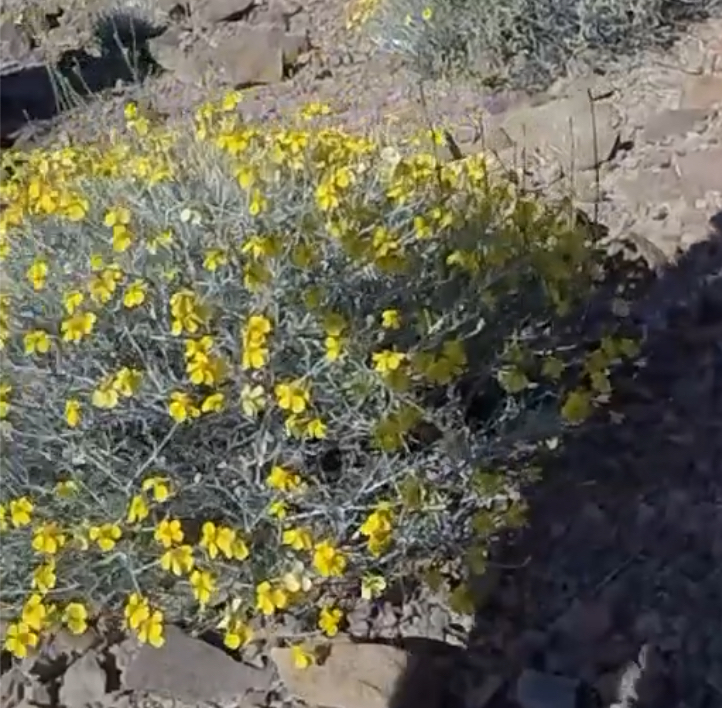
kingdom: Plantae
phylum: Tracheophyta
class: Magnoliopsida
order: Asterales
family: Asteraceae
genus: Psilostrophe
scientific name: Psilostrophe cooperi
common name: White-stem paper-flower
